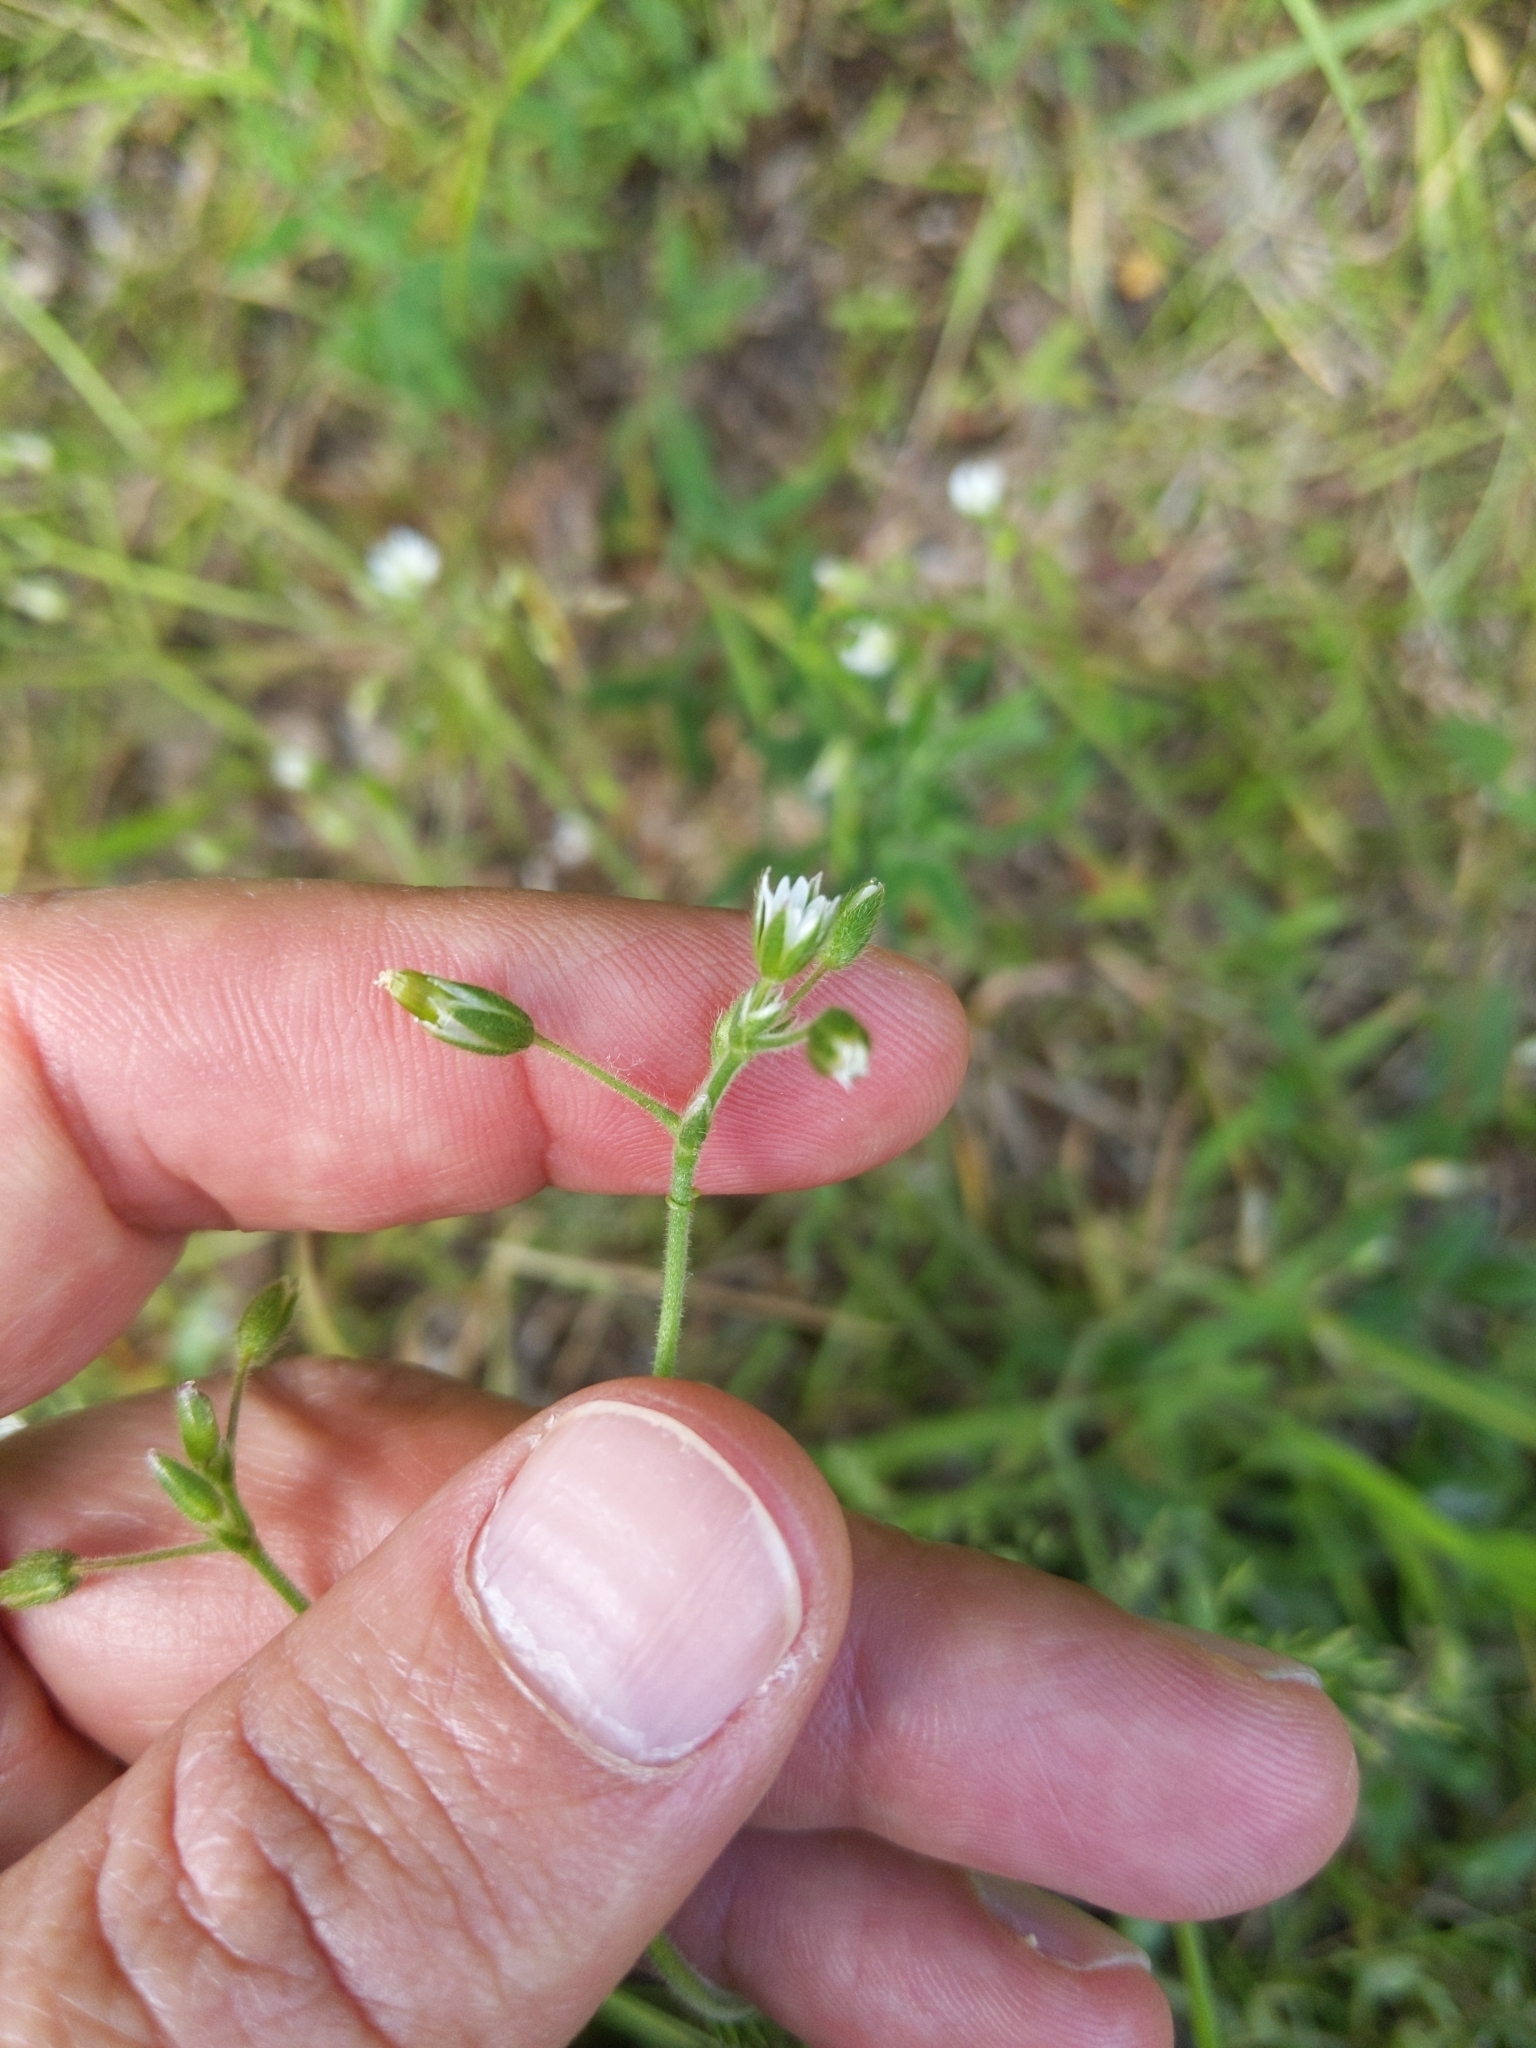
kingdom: Plantae
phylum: Tracheophyta
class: Magnoliopsida
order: Caryophyllales
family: Caryophyllaceae
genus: Cerastium
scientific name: Cerastium fontanum
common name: Common mouse-ear
